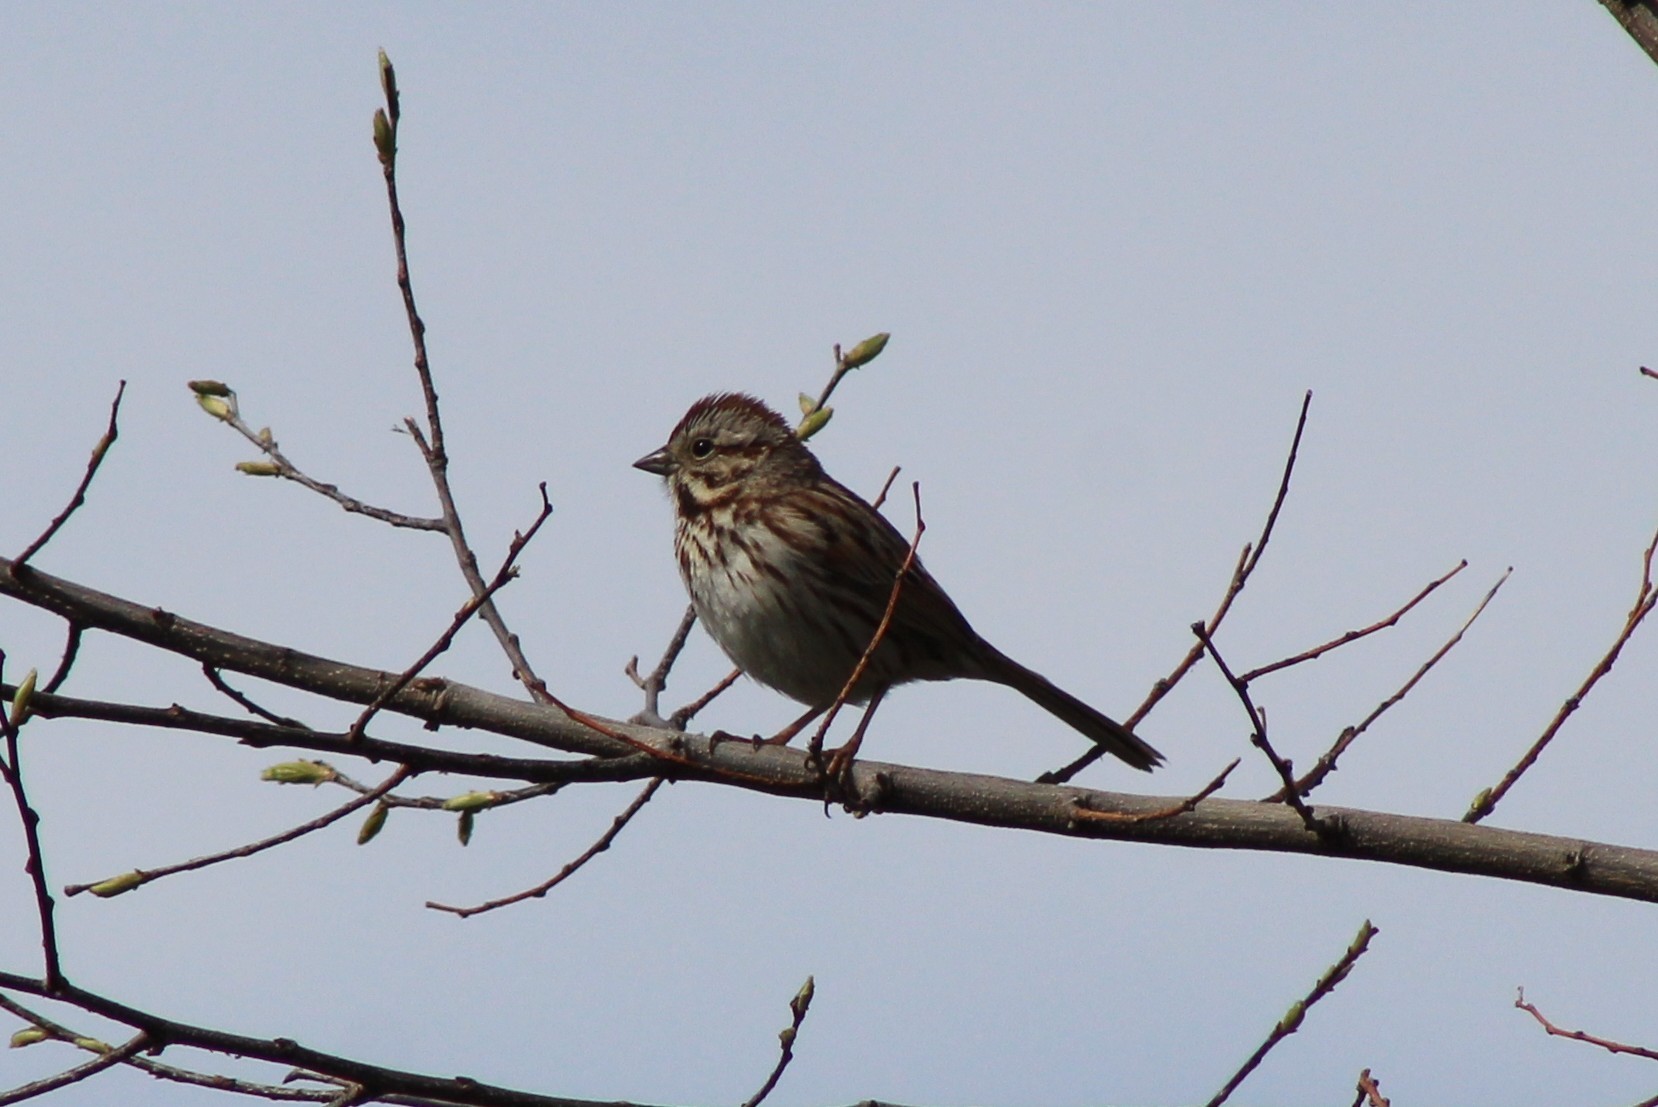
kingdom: Animalia
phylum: Chordata
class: Aves
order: Passeriformes
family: Passerellidae
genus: Melospiza
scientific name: Melospiza melodia
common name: Song sparrow
